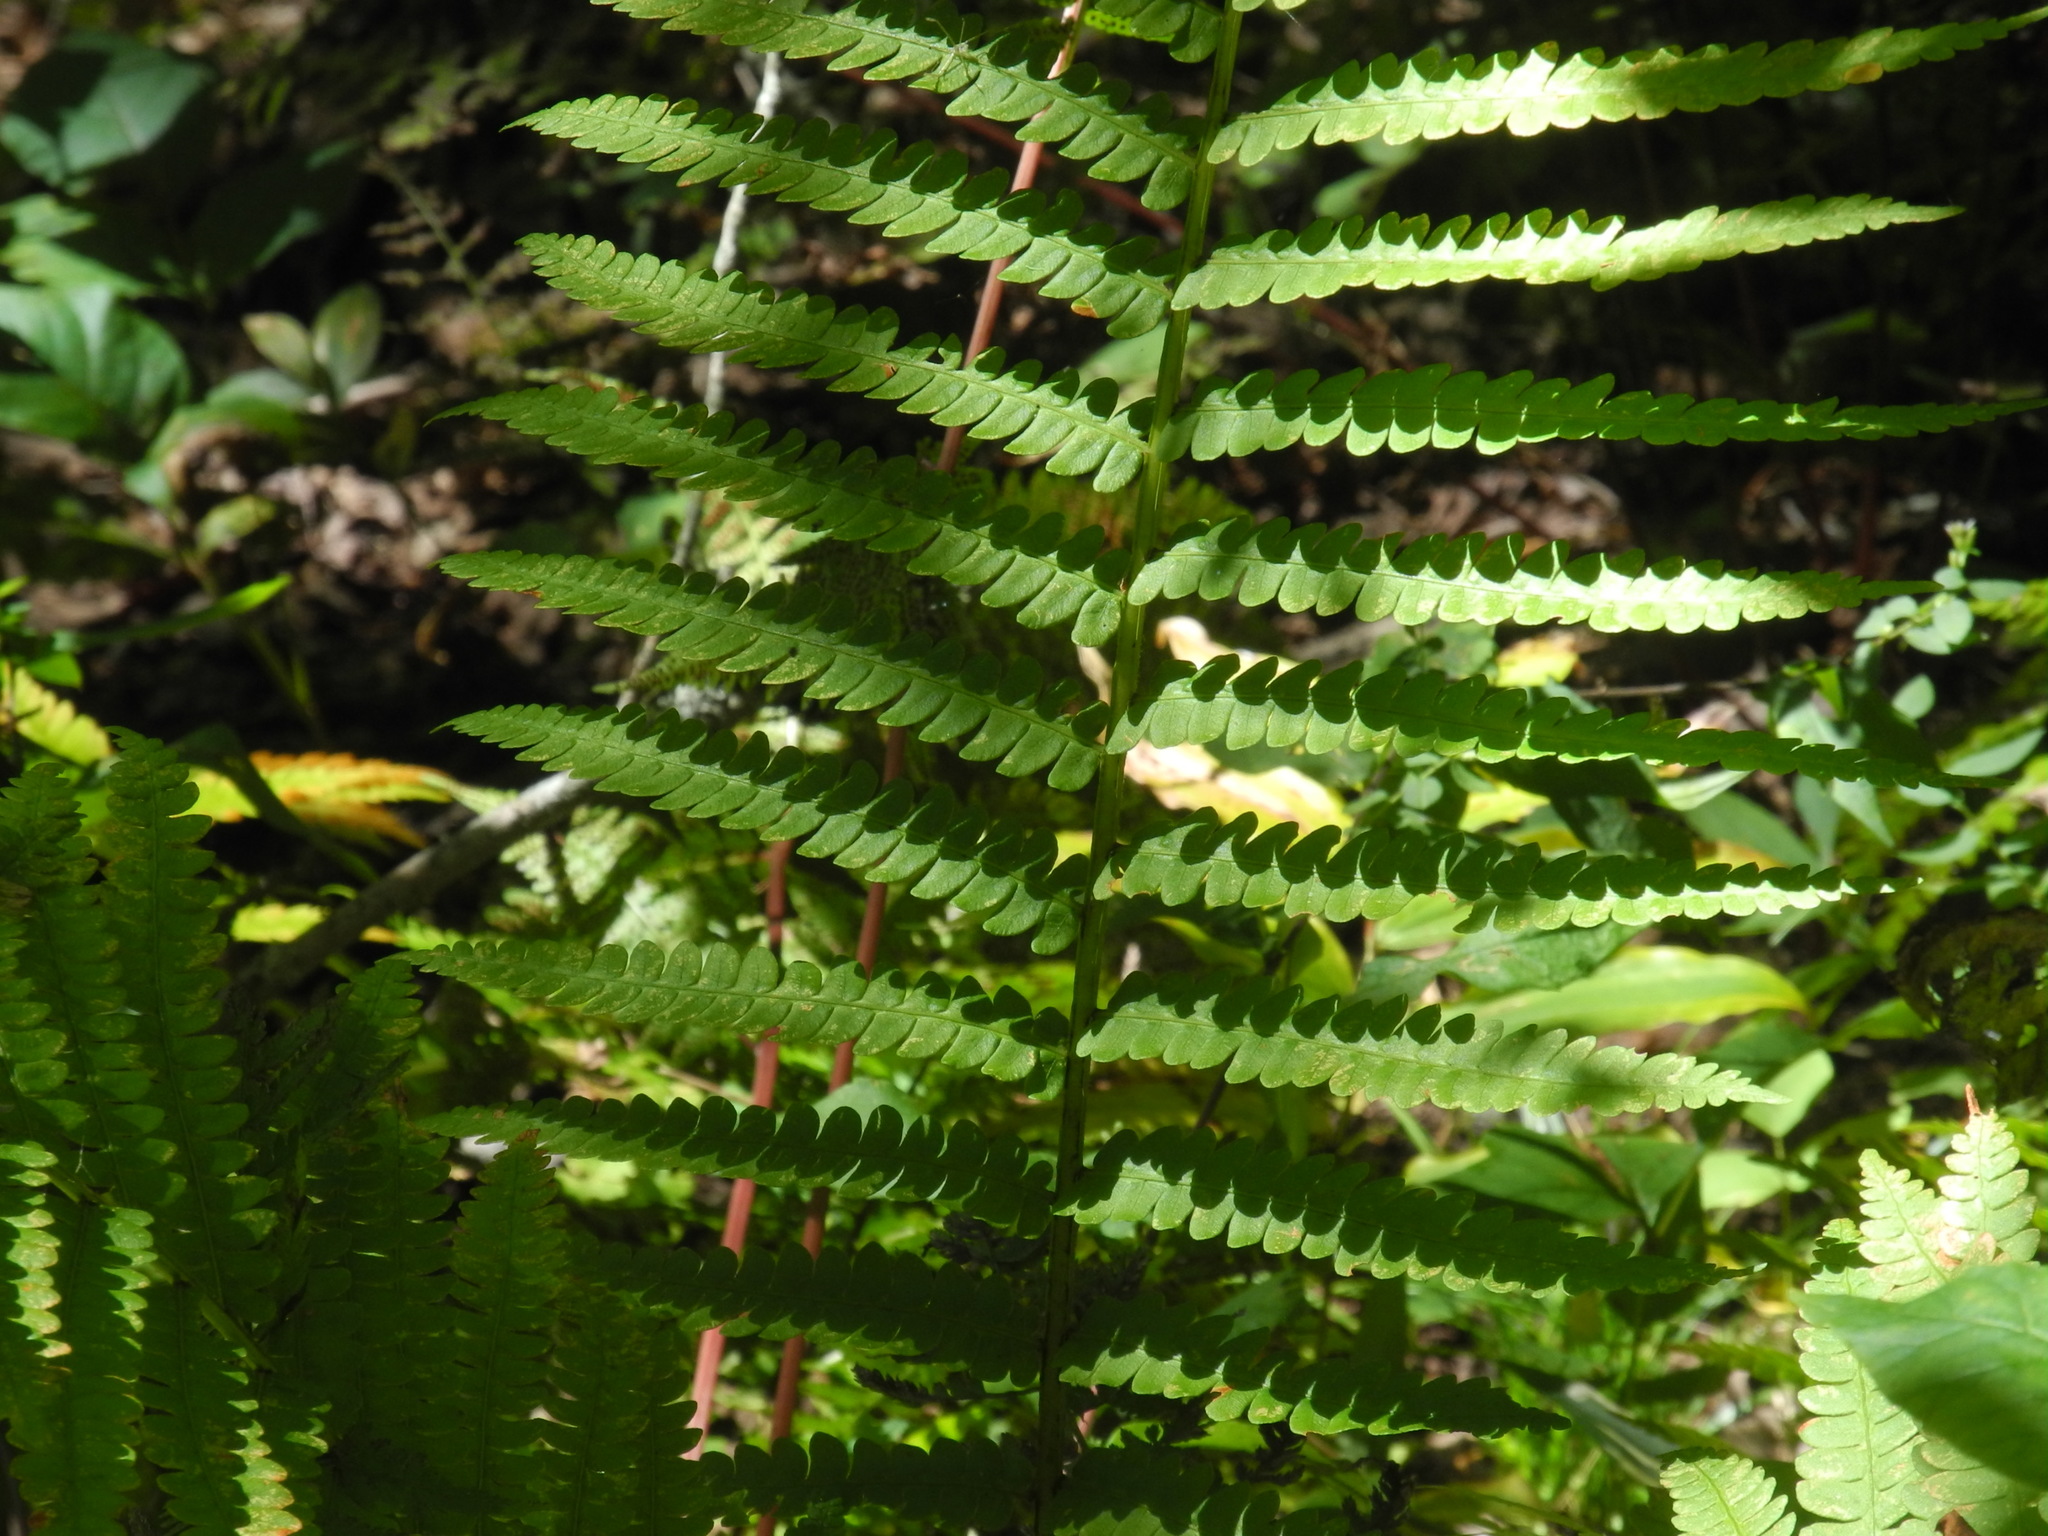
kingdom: Plantae
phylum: Tracheophyta
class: Polypodiopsida
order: Osmundales
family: Osmundaceae
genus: Osmundastrum
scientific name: Osmundastrum cinnamomeum
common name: Cinnamon fern
